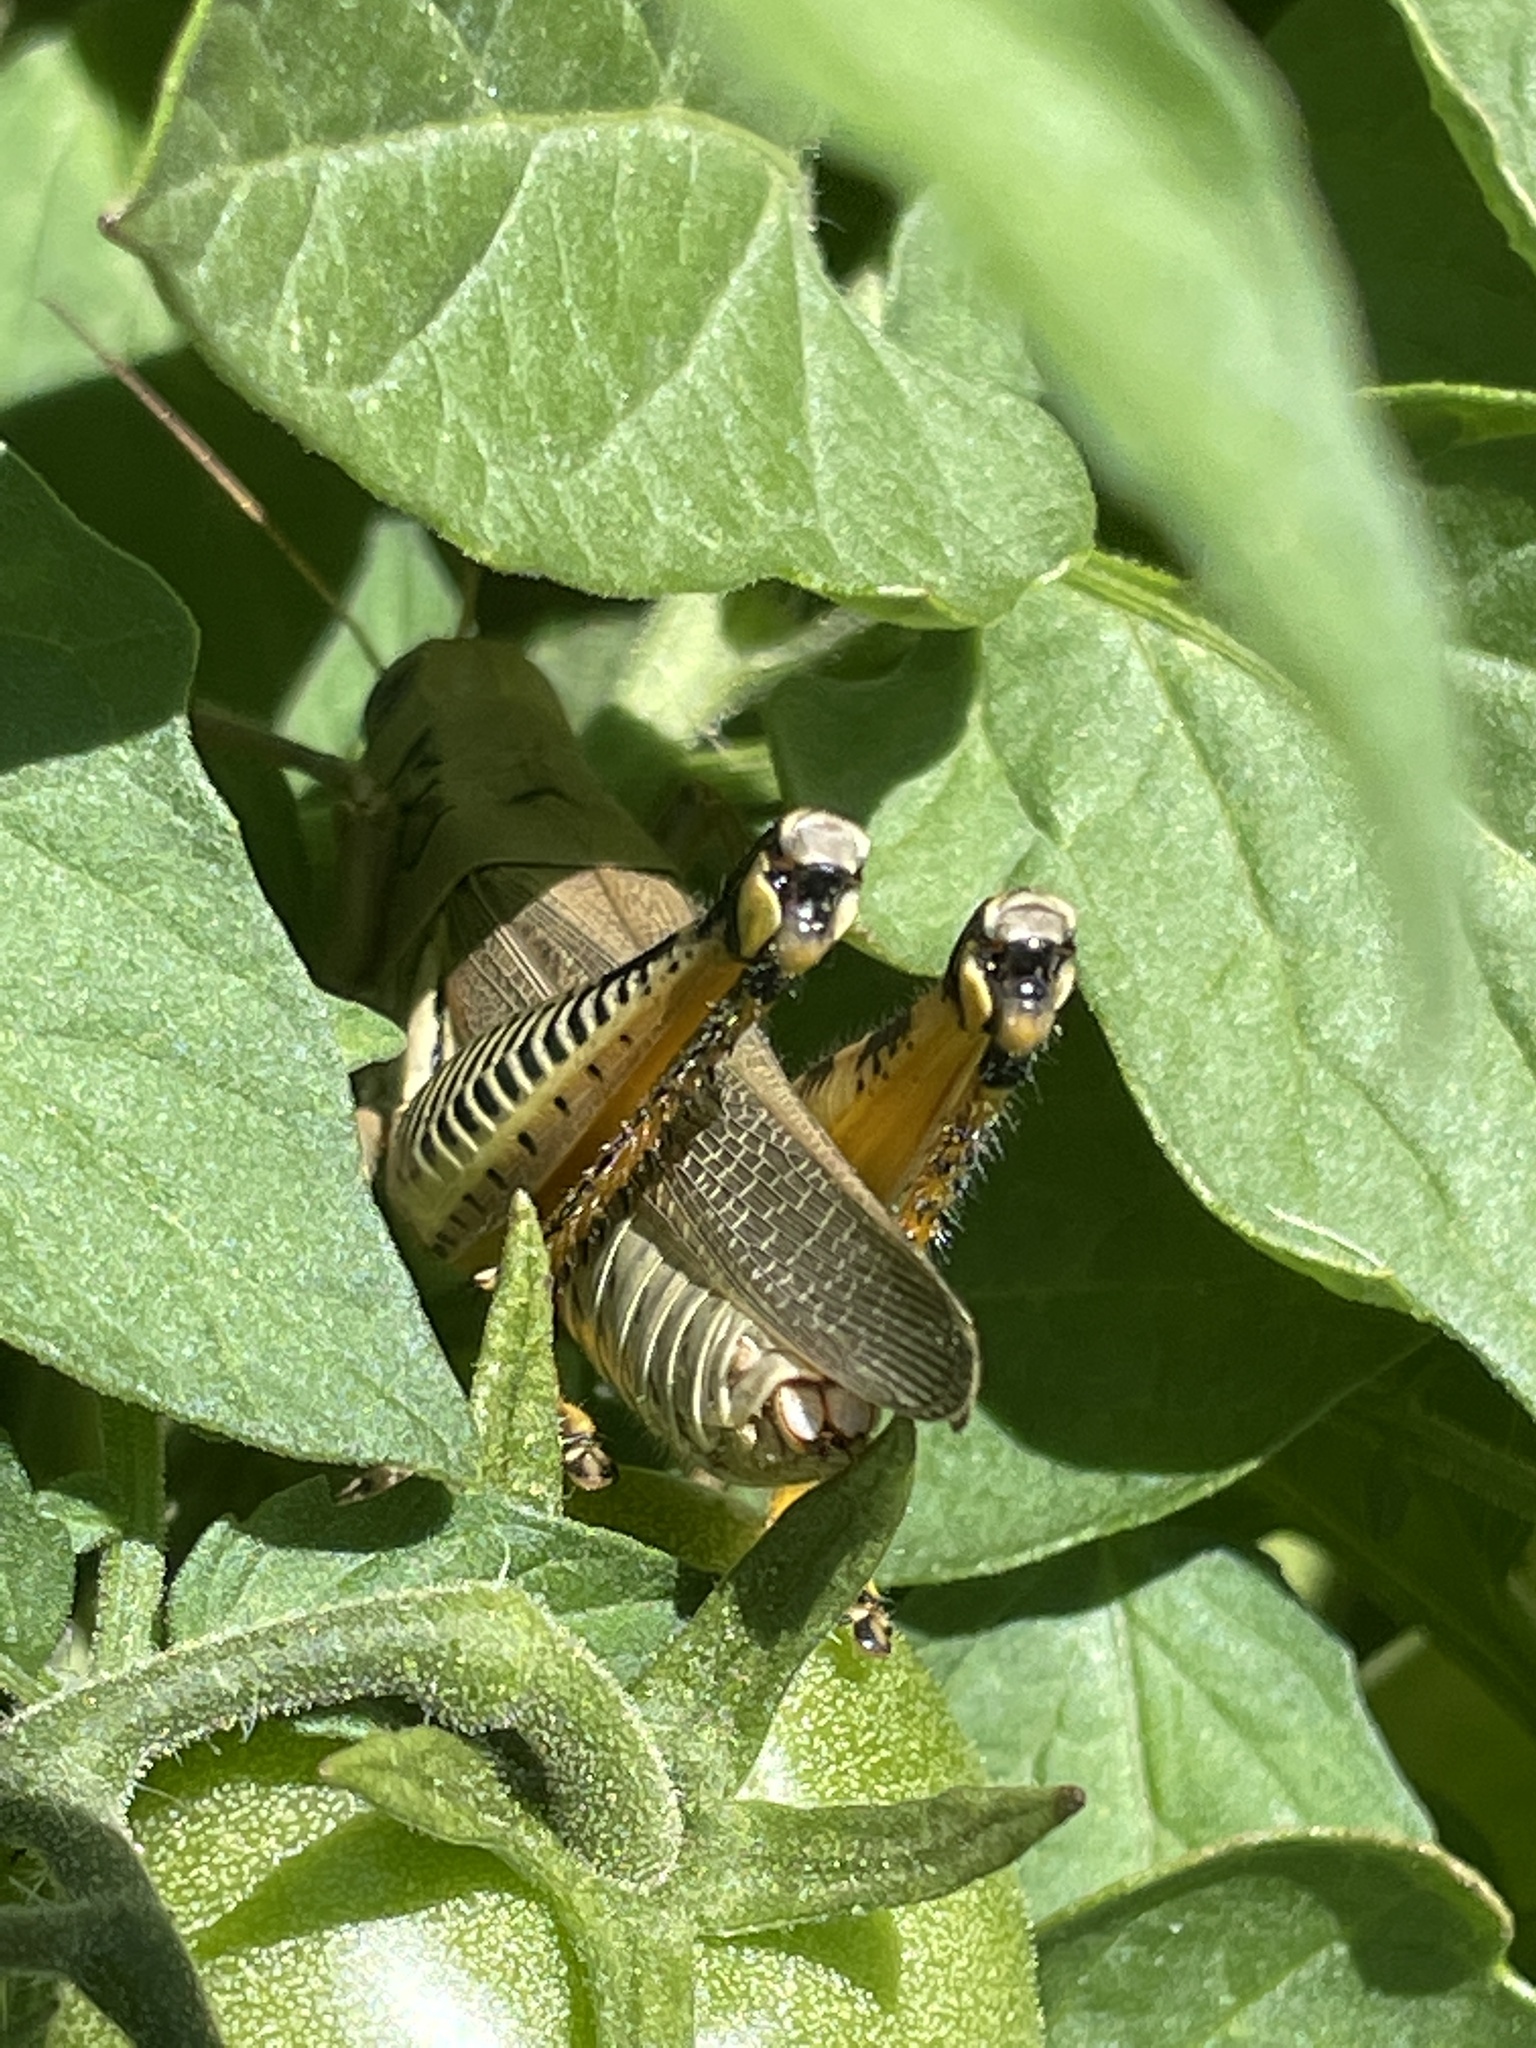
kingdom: Animalia
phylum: Arthropoda
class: Insecta
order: Orthoptera
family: Acrididae
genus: Melanoplus
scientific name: Melanoplus differentialis
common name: Differential grasshopper
